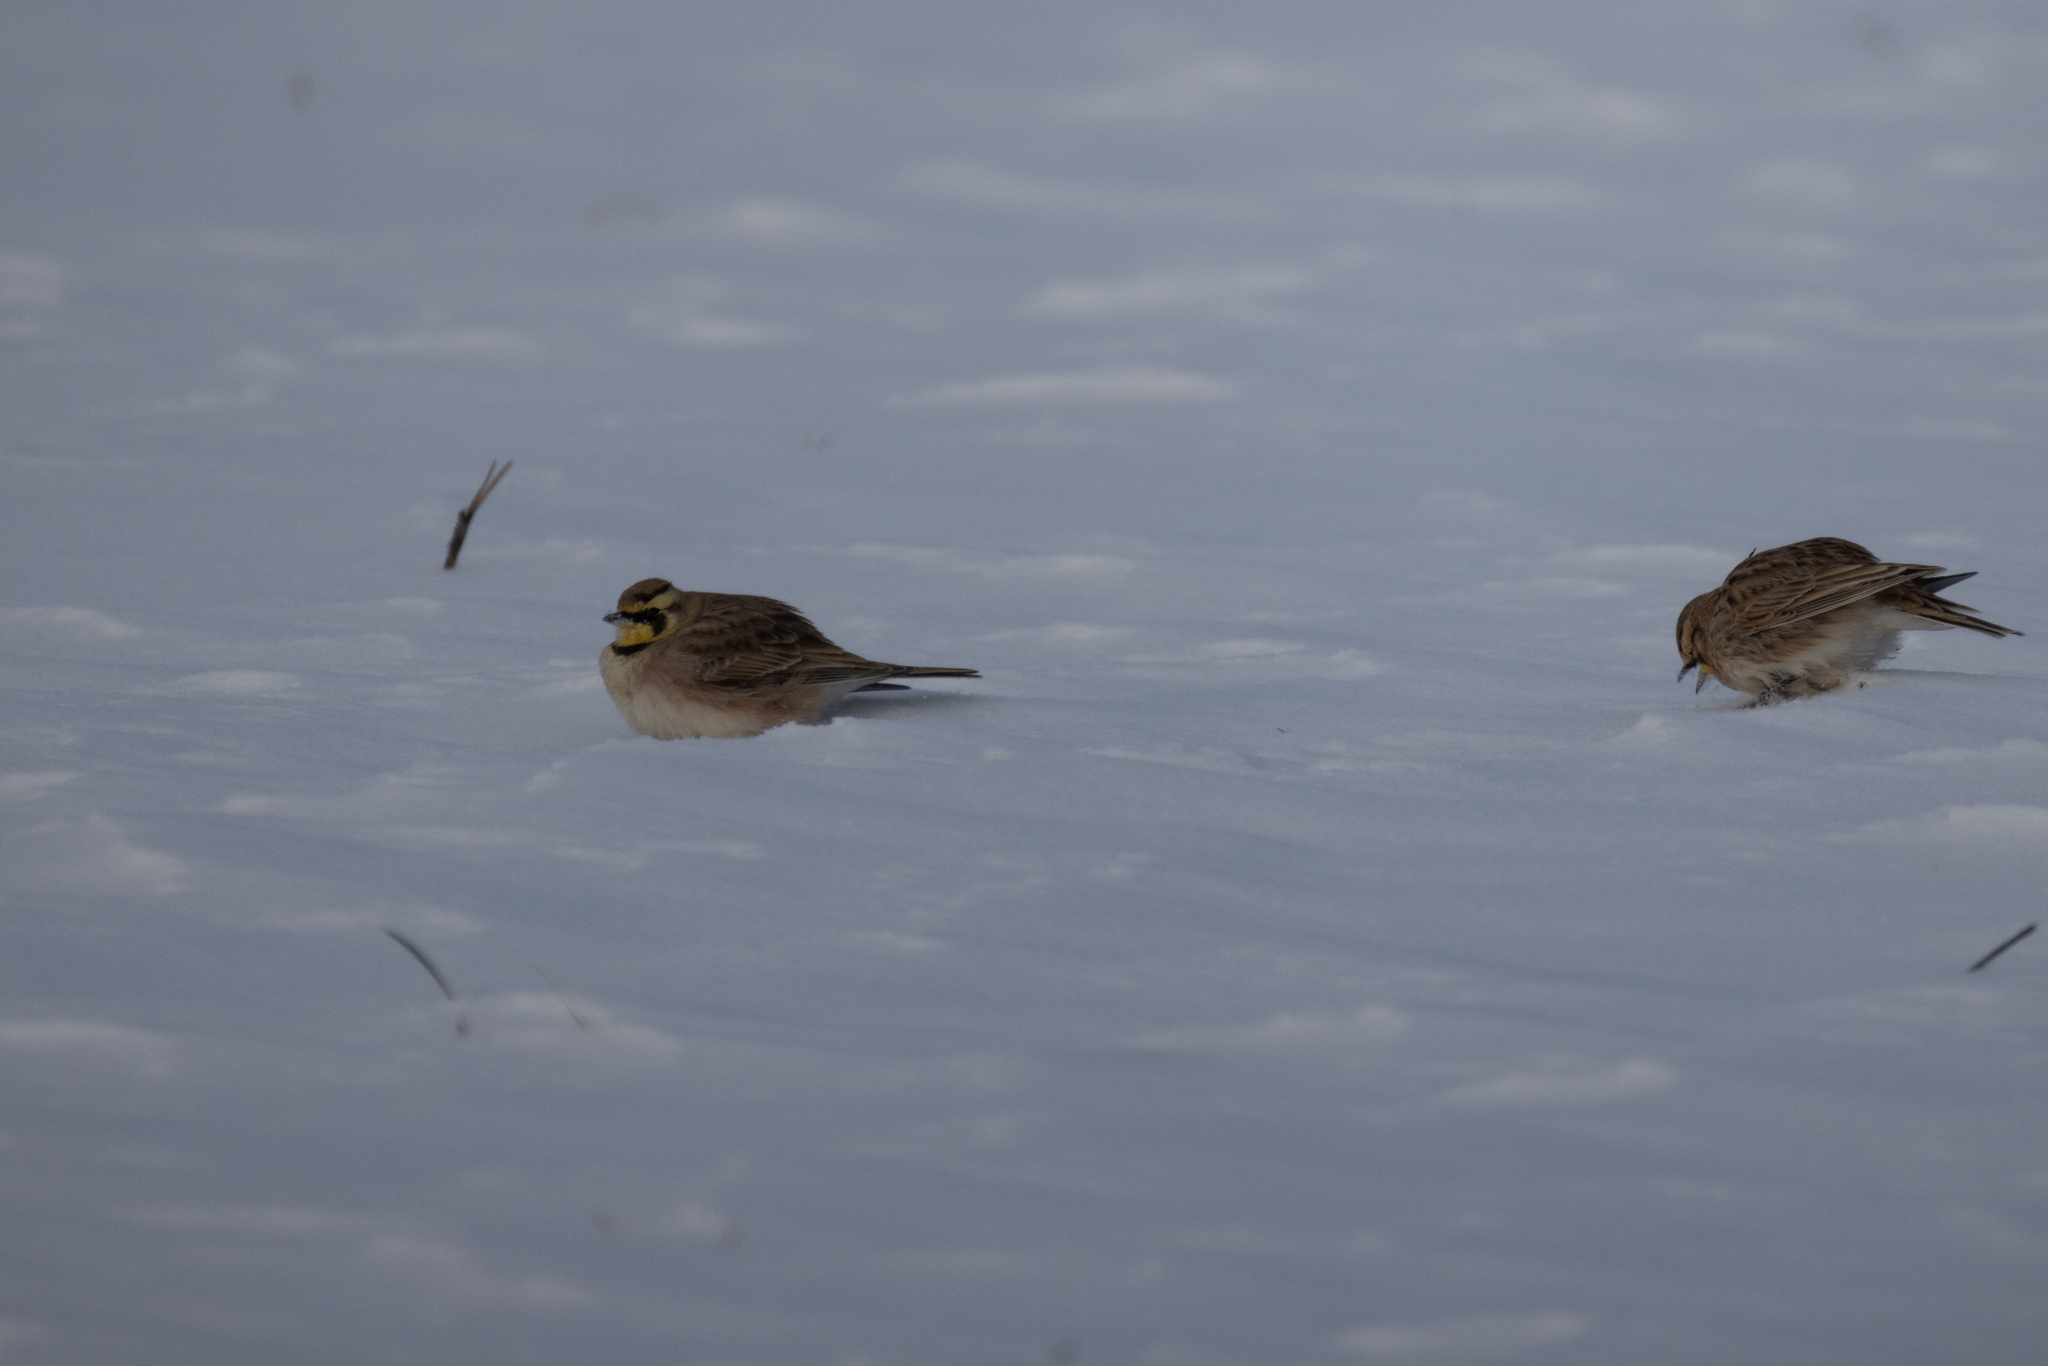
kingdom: Animalia
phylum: Chordata
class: Aves
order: Passeriformes
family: Alaudidae
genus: Eremophila
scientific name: Eremophila alpestris
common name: Horned lark
